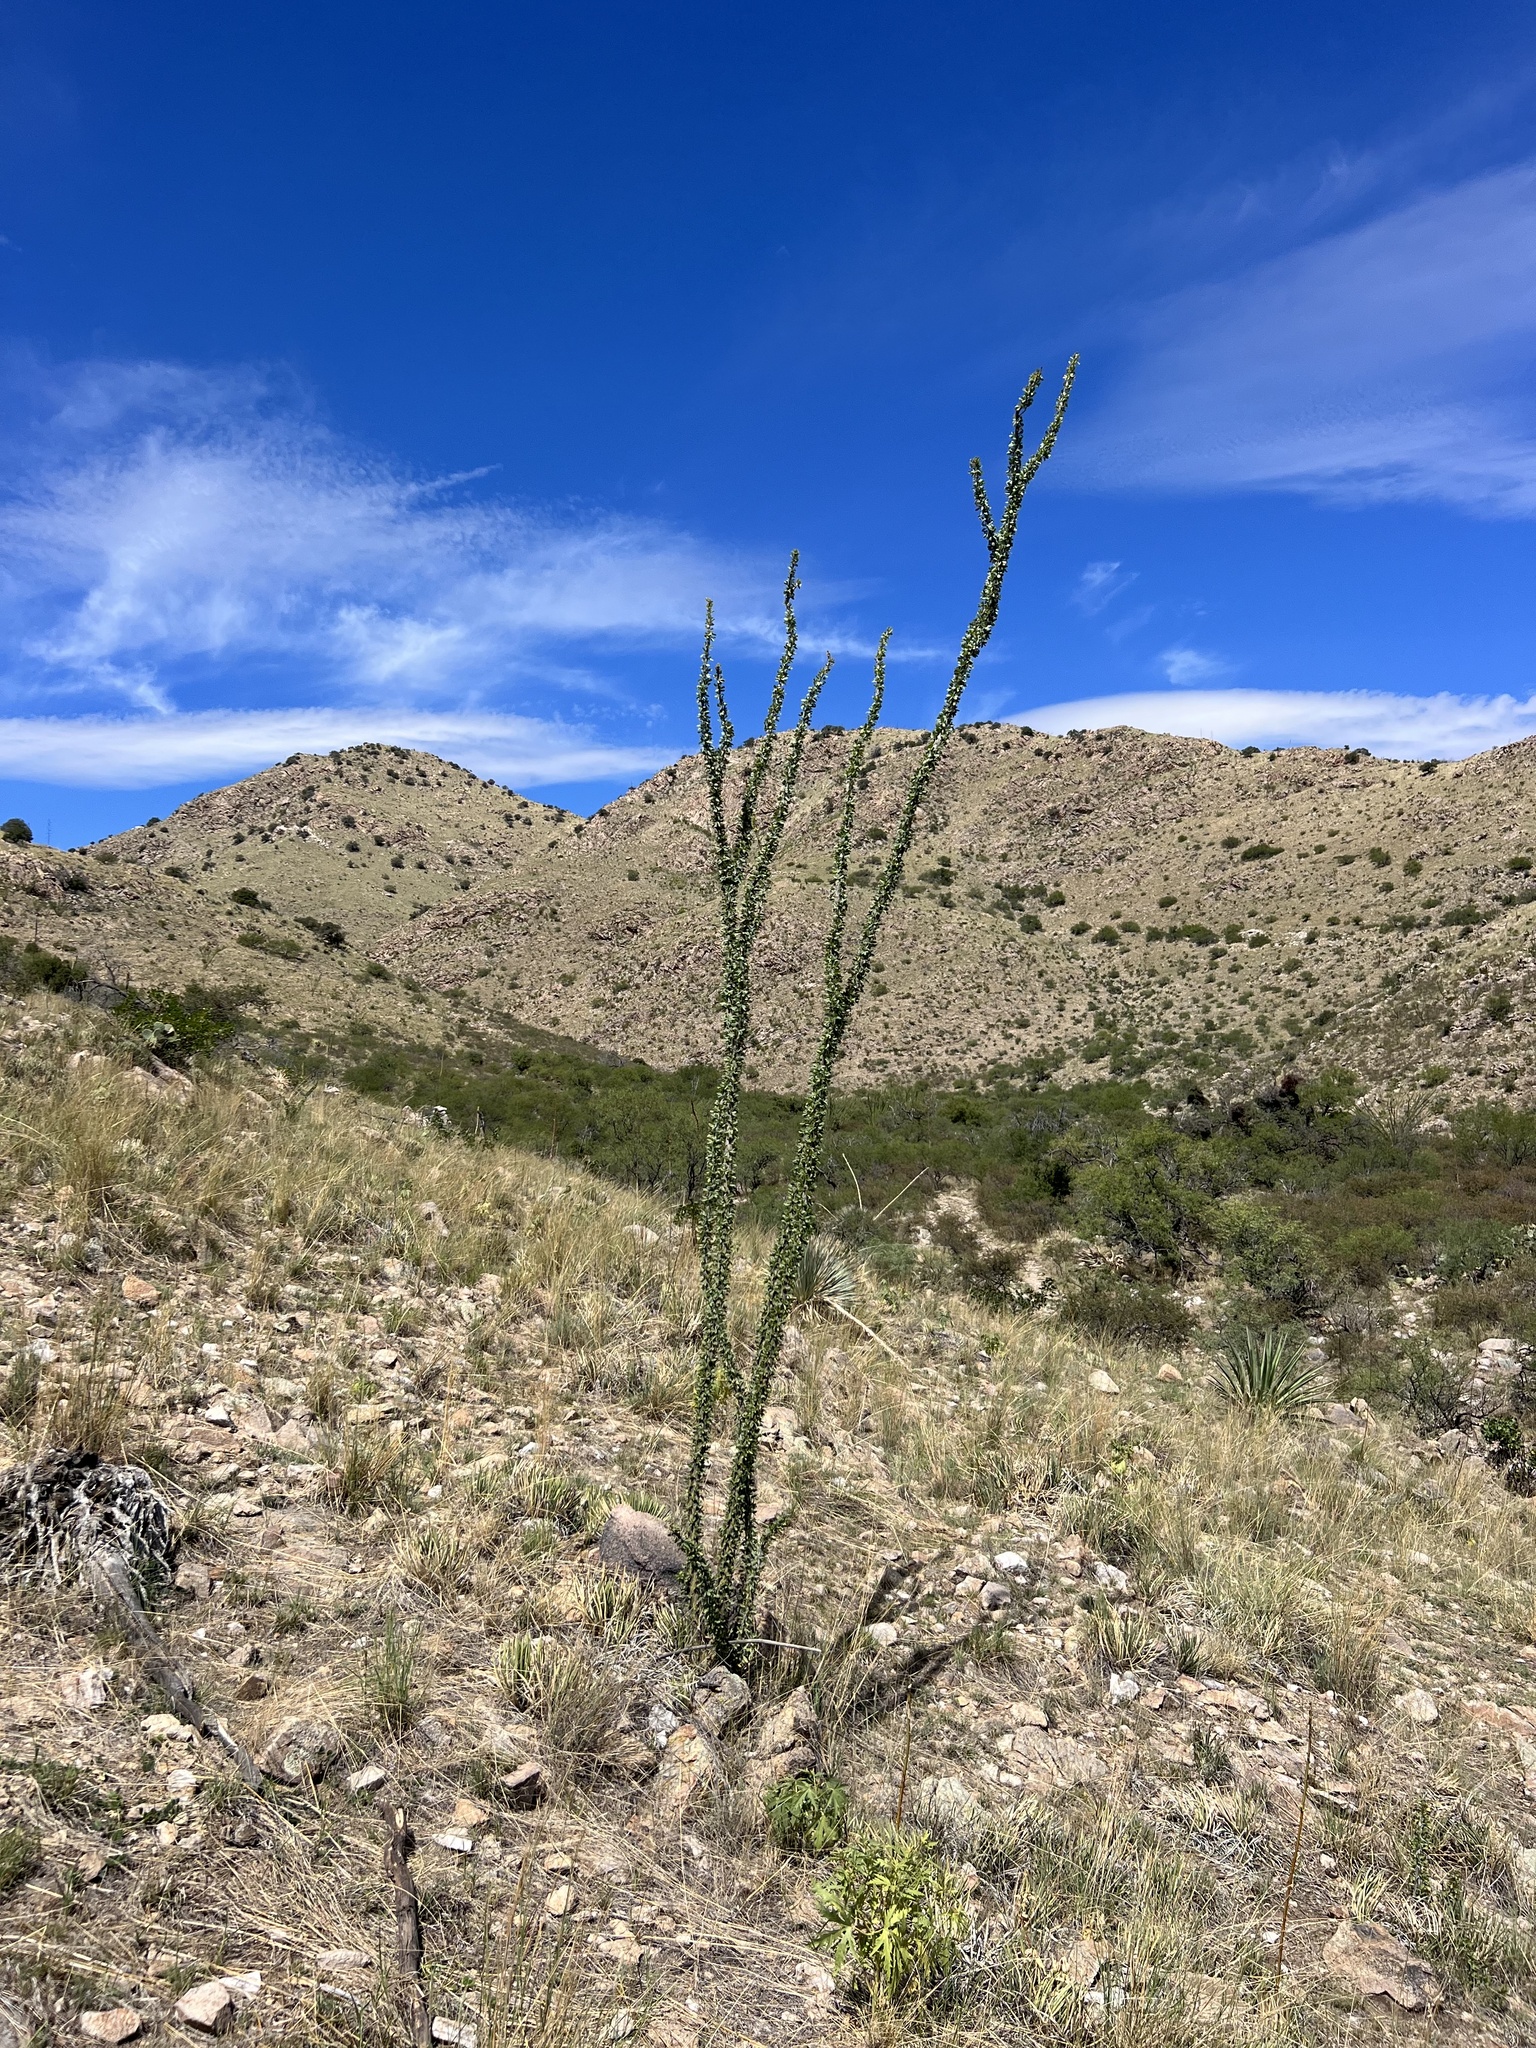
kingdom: Plantae
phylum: Tracheophyta
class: Magnoliopsida
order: Ericales
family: Fouquieriaceae
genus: Fouquieria
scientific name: Fouquieria splendens
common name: Vine-cactus
